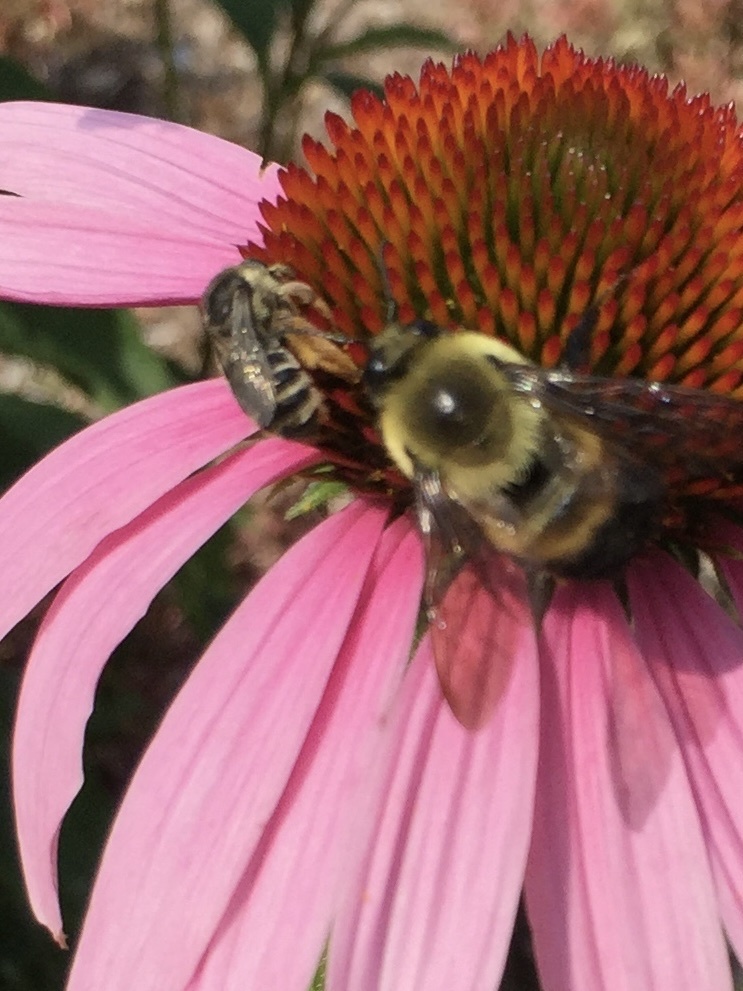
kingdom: Animalia
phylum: Arthropoda
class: Insecta
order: Hymenoptera
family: Apidae
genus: Bombus
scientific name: Bombus griseocollis
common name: Brown-belted bumble bee
